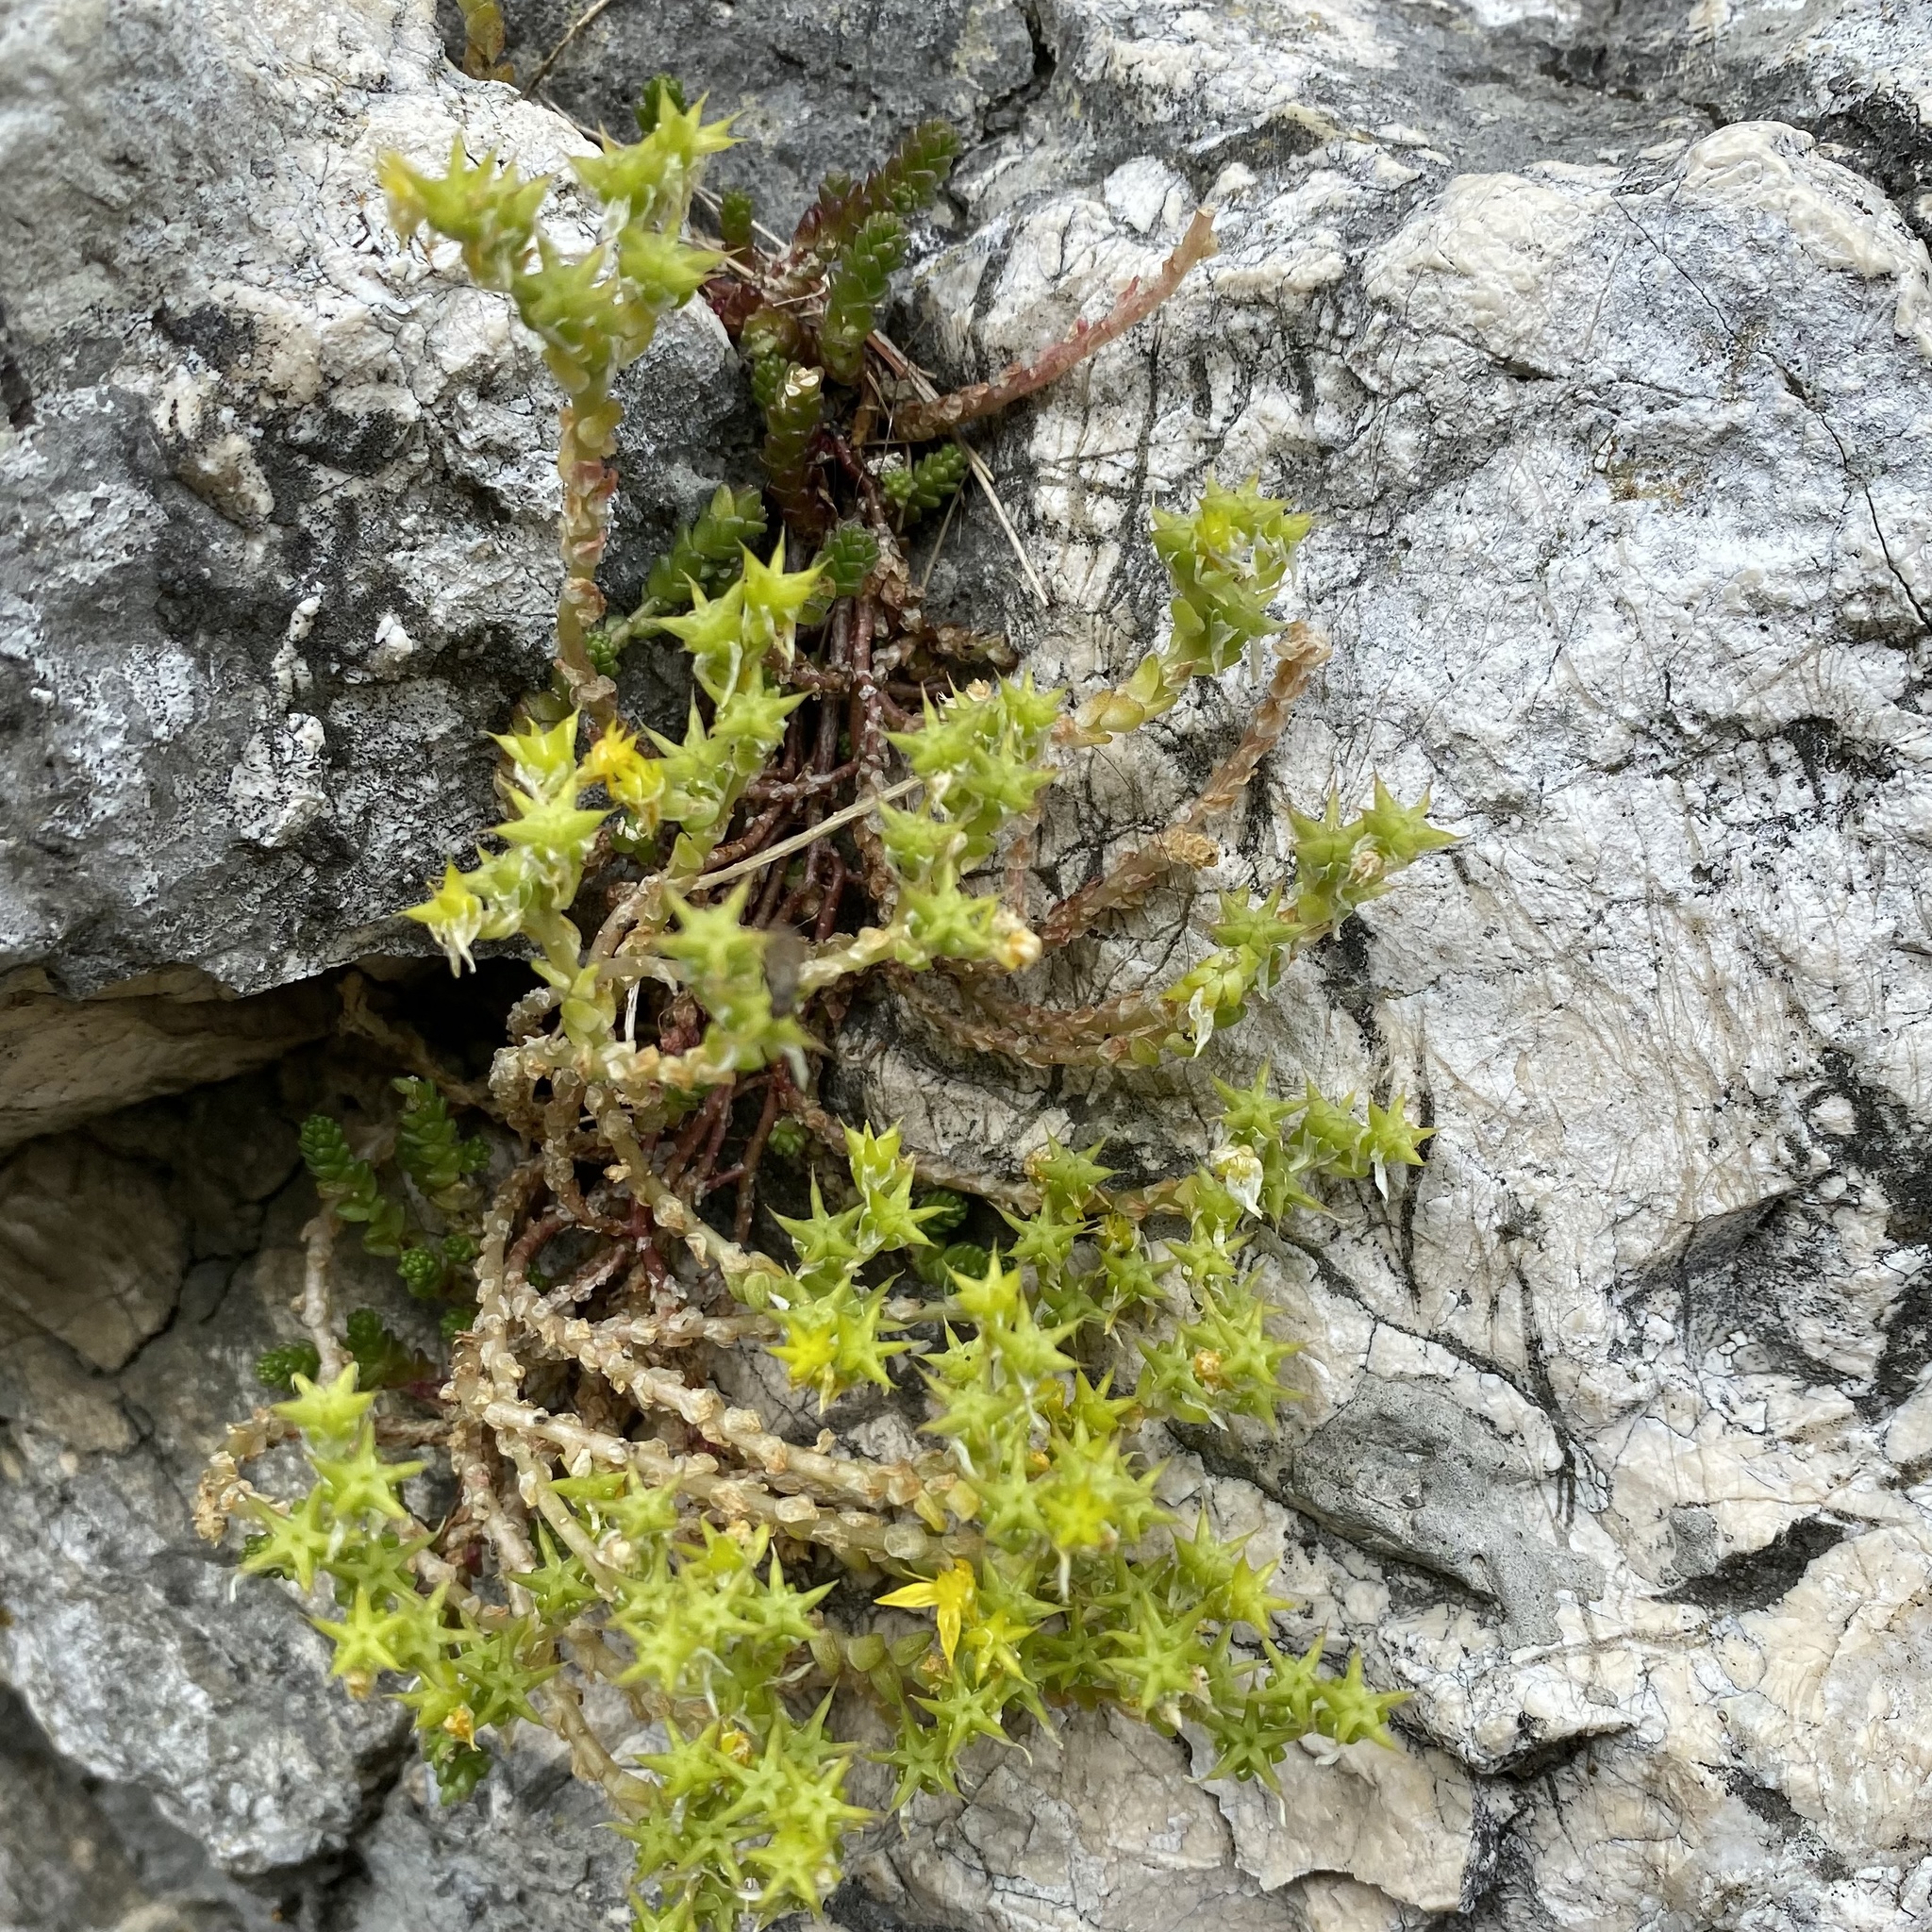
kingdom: Plantae
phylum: Tracheophyta
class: Magnoliopsida
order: Saxifragales
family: Crassulaceae
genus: Sedum
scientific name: Sedum acre
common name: Biting stonecrop
